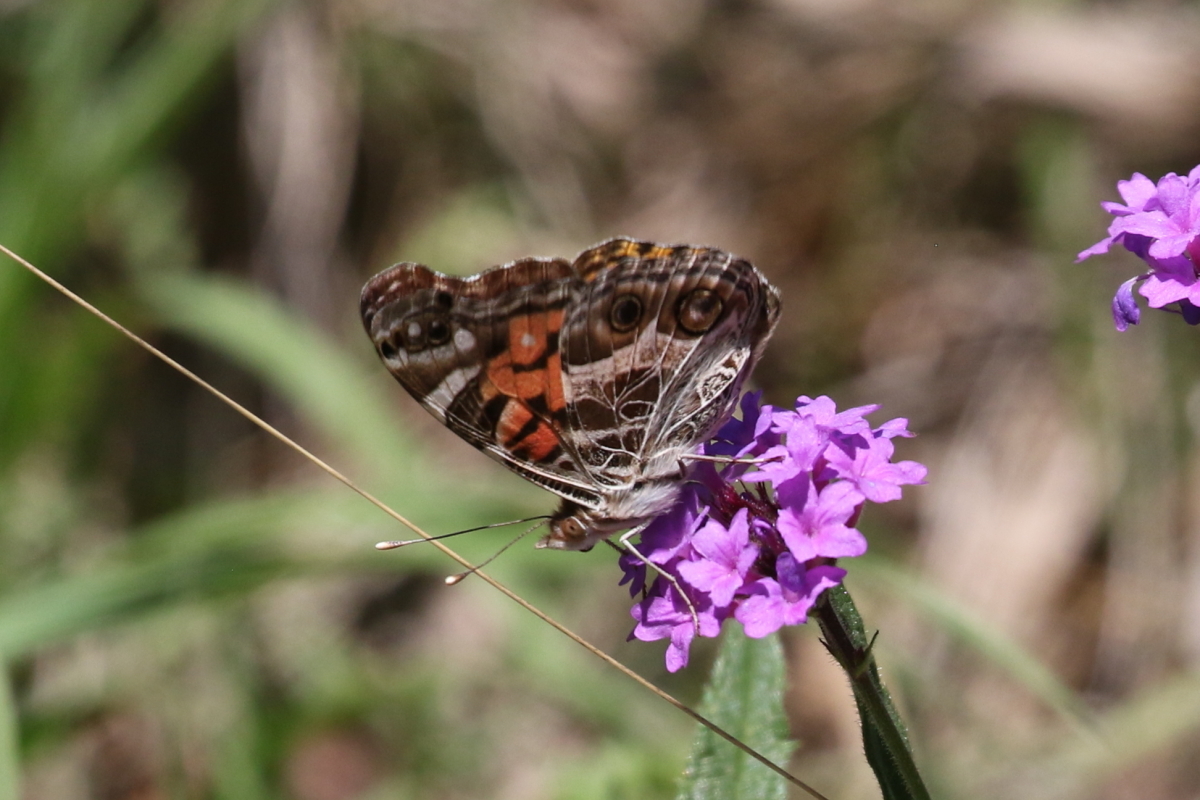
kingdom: Animalia
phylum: Arthropoda
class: Insecta
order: Lepidoptera
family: Nymphalidae
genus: Vanessa
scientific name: Vanessa virginiensis
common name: American lady
